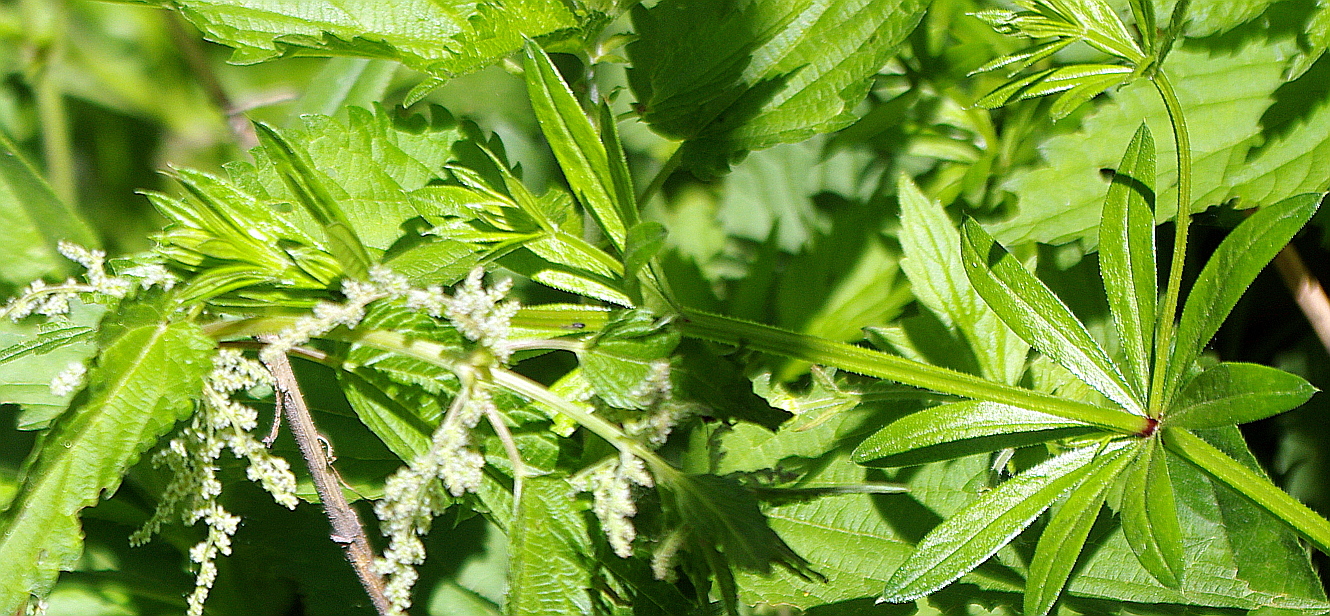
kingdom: Plantae
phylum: Tracheophyta
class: Magnoliopsida
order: Gentianales
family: Rubiaceae
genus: Galium
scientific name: Galium aparine
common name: Cleavers
